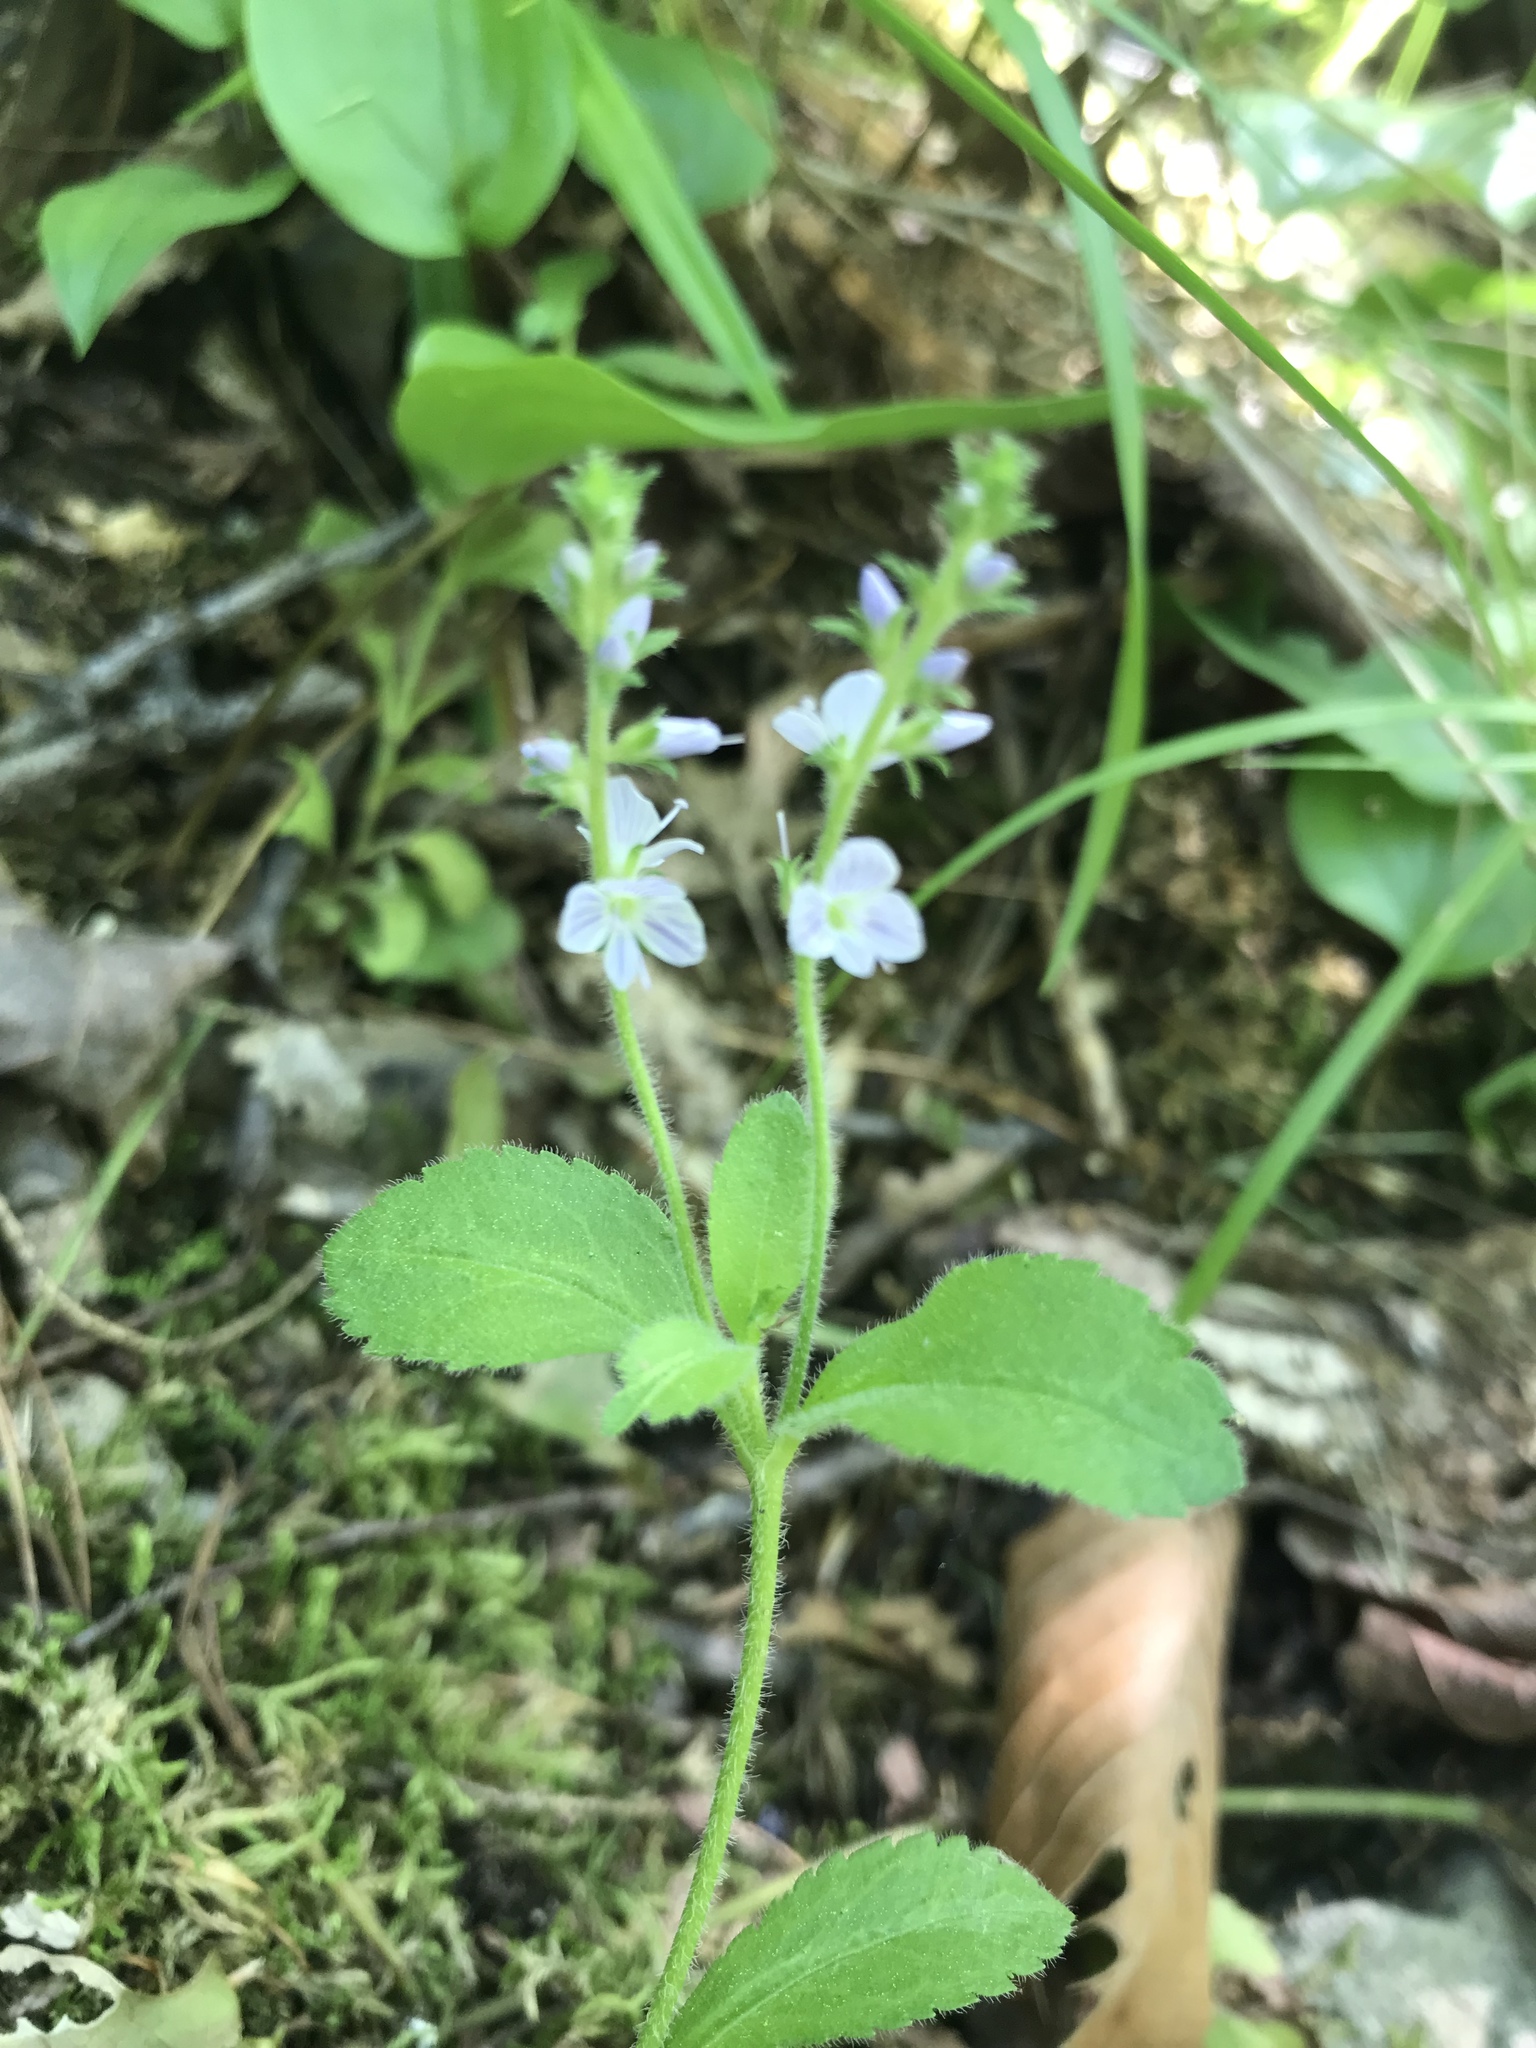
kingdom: Plantae
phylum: Tracheophyta
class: Magnoliopsida
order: Lamiales
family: Plantaginaceae
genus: Veronica
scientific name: Veronica officinalis
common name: Common speedwell
